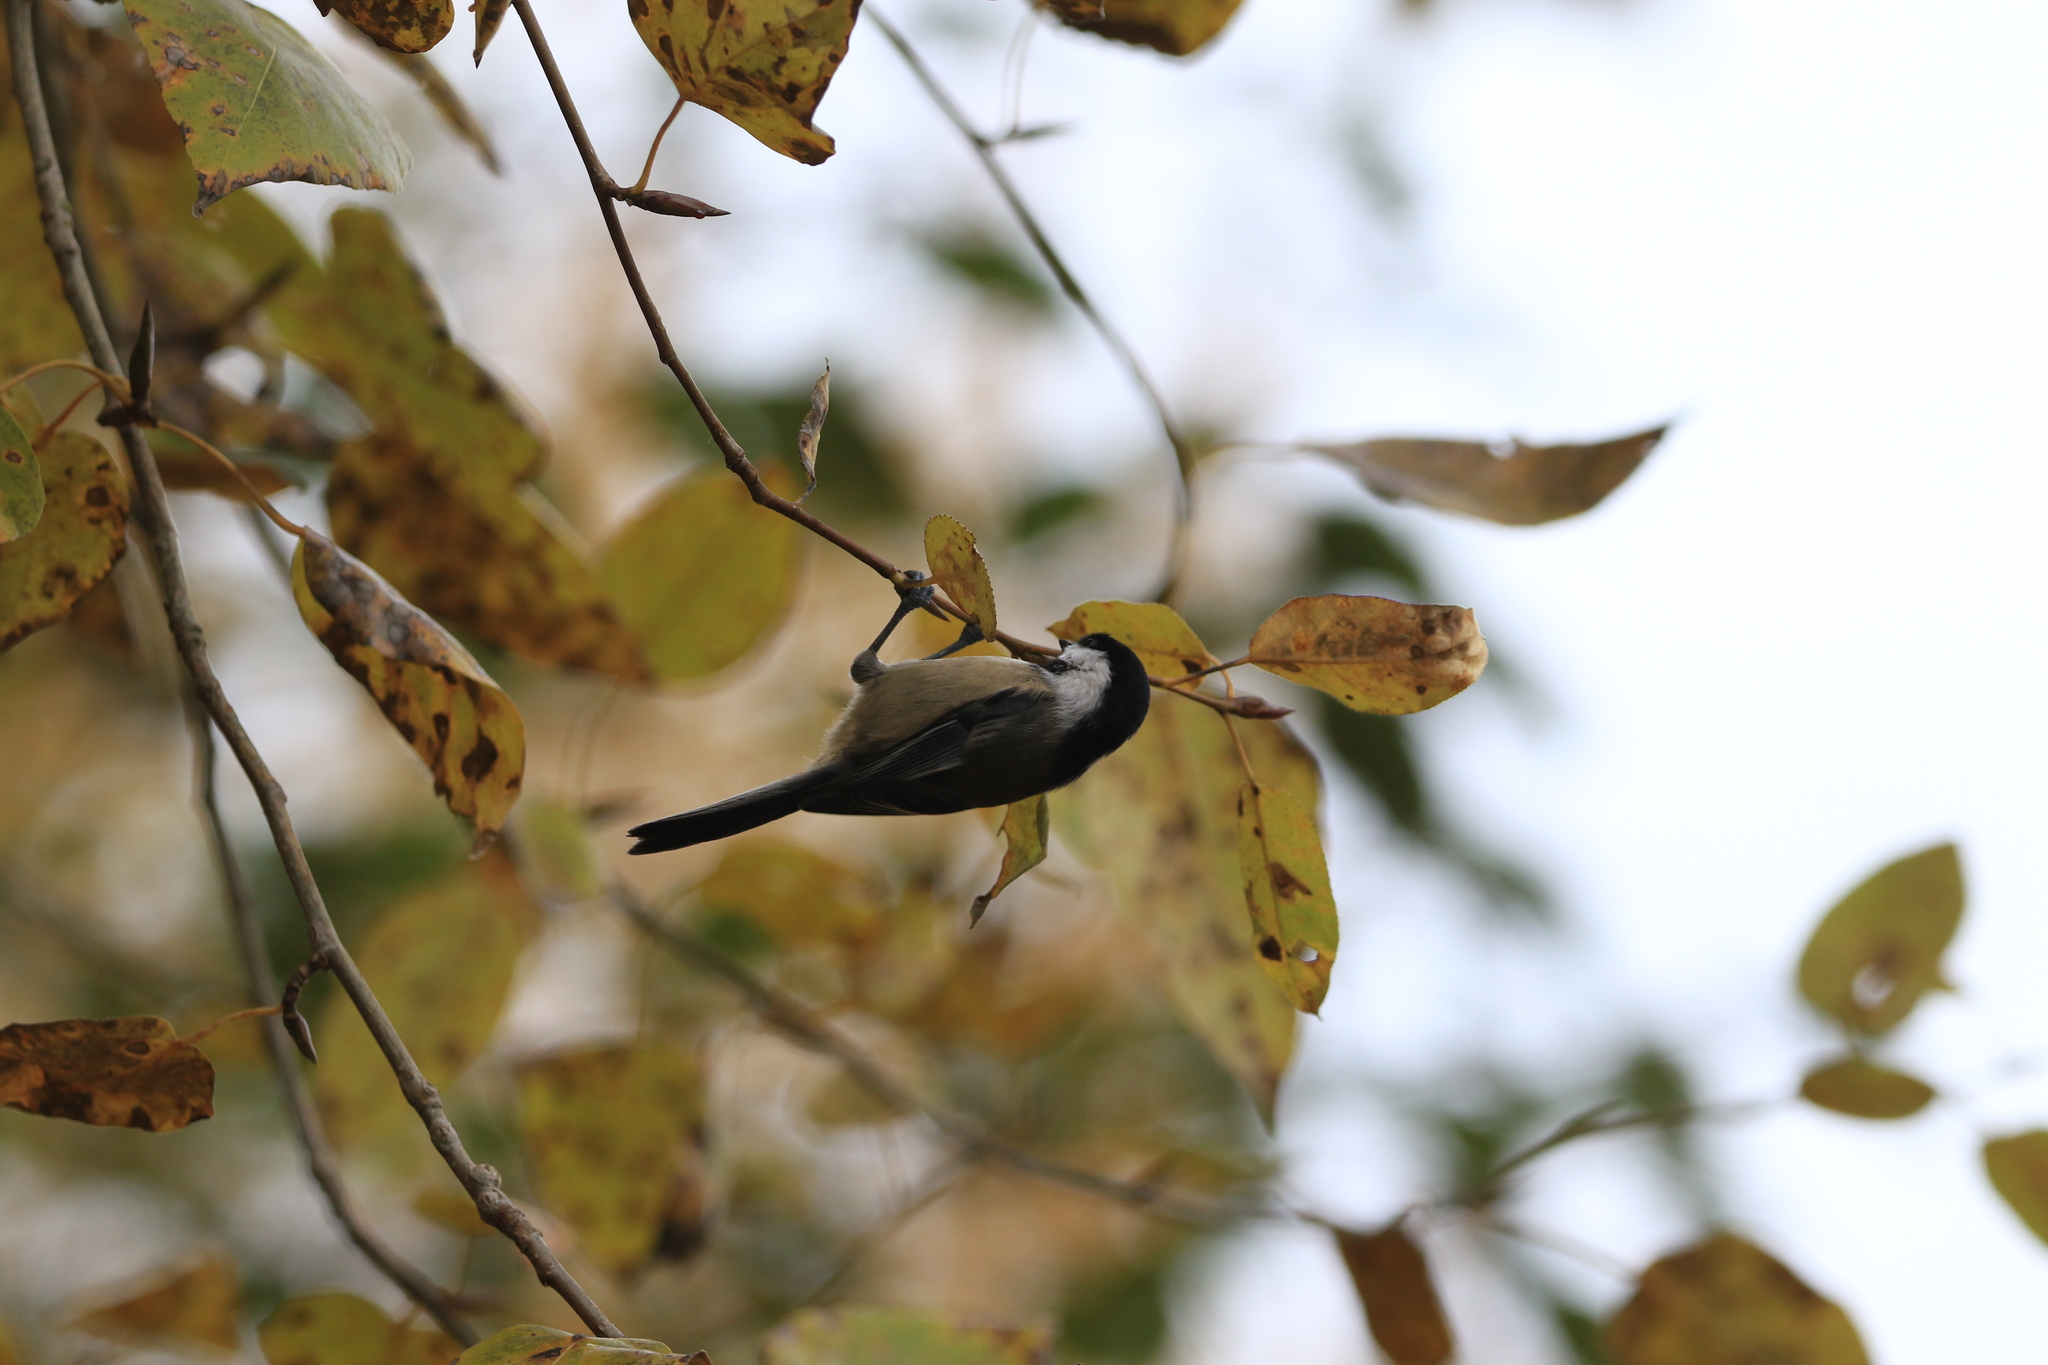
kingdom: Animalia
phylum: Chordata
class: Aves
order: Passeriformes
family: Paridae
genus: Poecile
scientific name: Poecile atricapillus
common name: Black-capped chickadee
